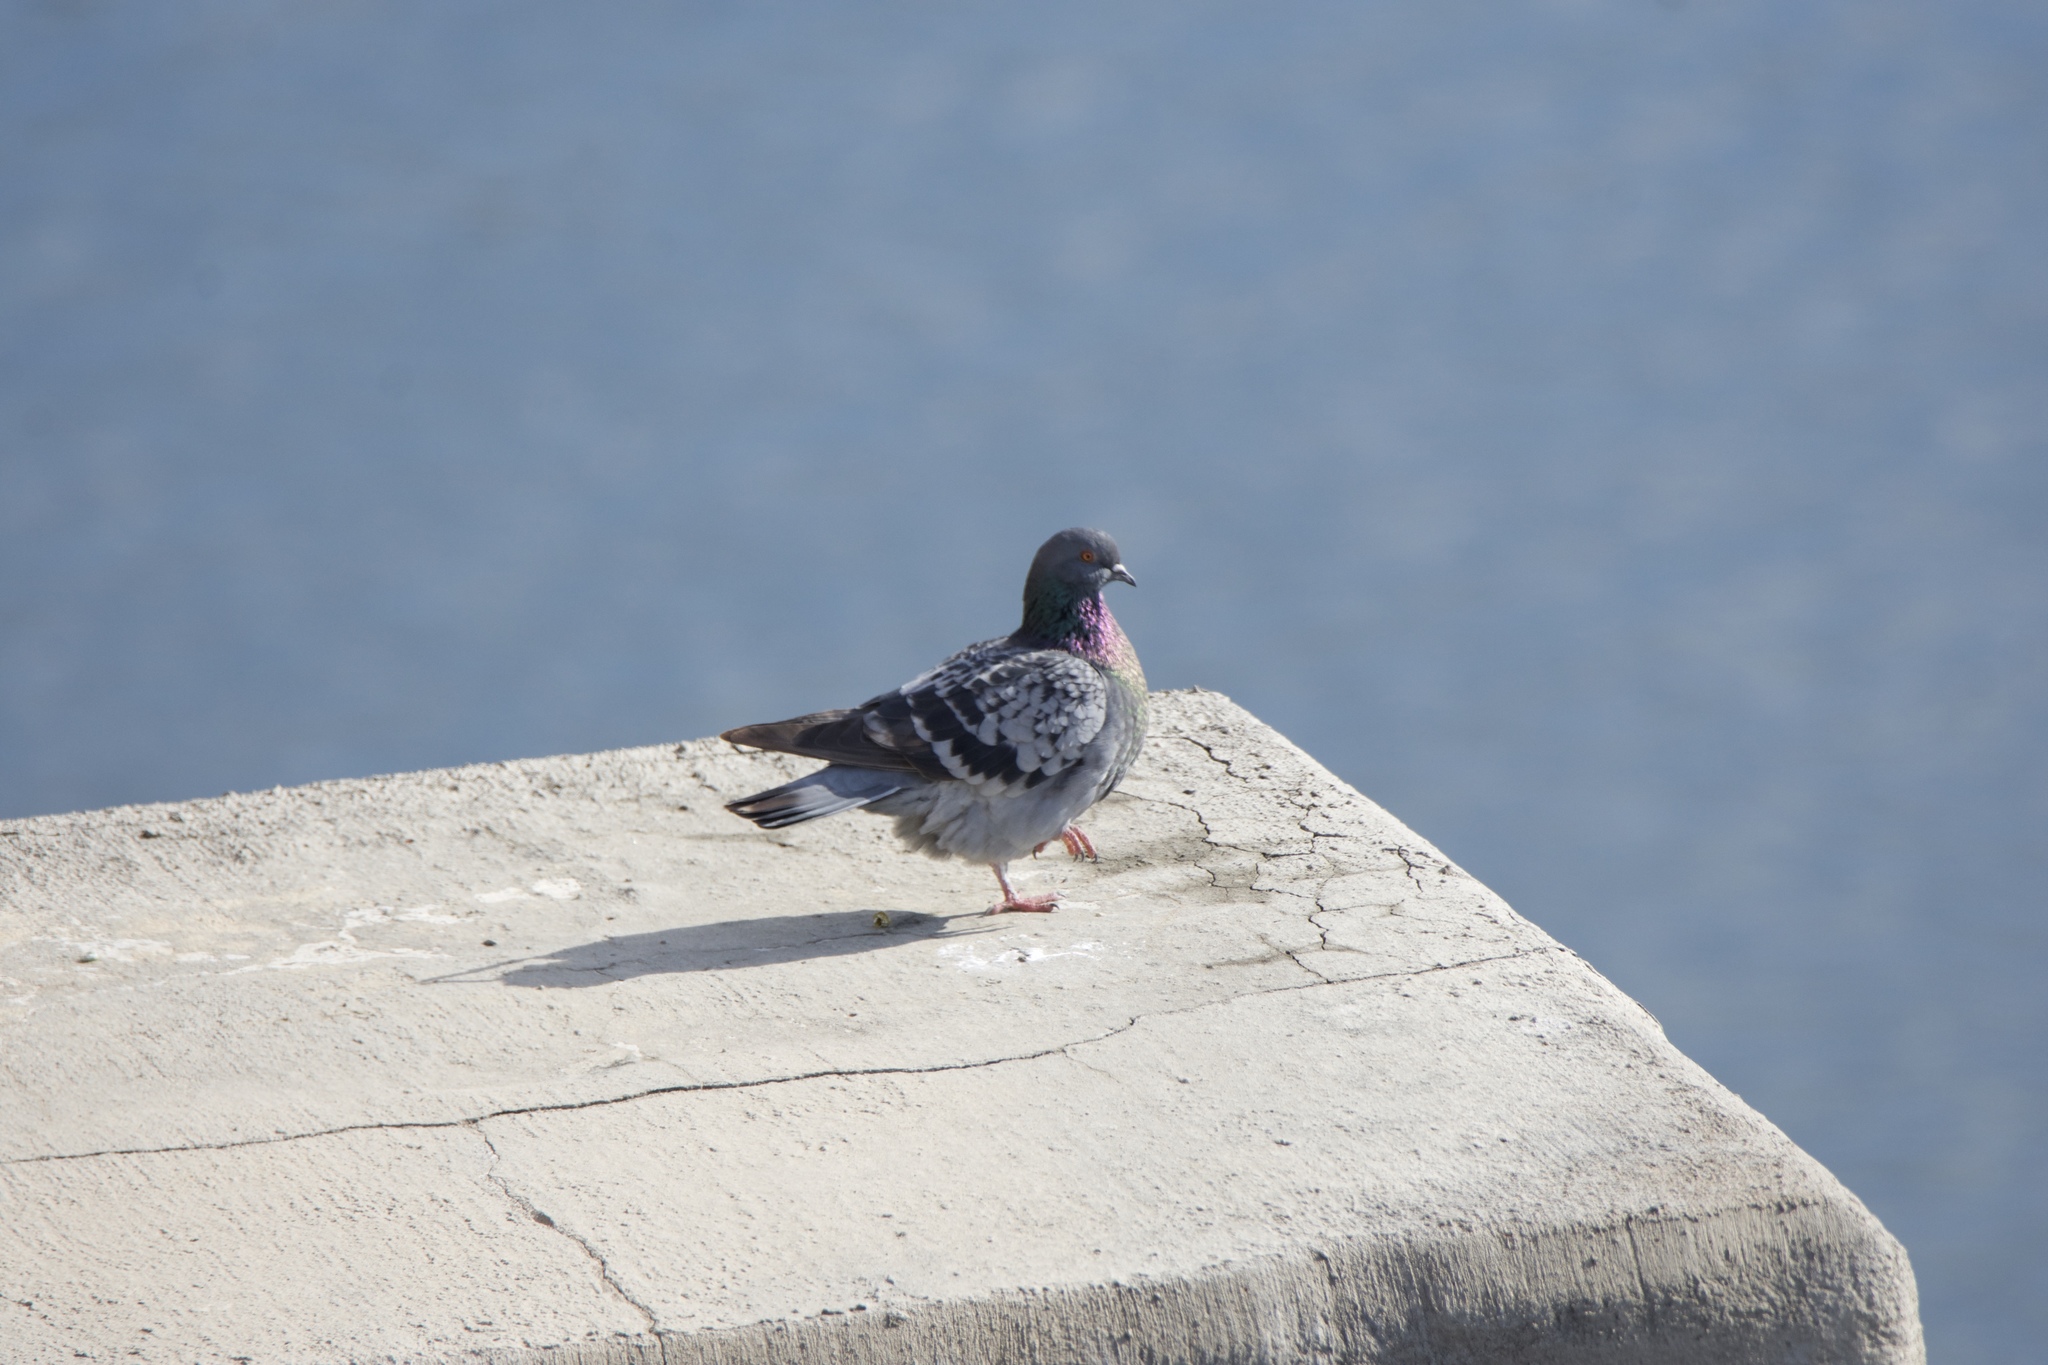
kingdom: Animalia
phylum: Chordata
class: Aves
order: Columbiformes
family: Columbidae
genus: Columba
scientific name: Columba livia
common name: Rock pigeon
